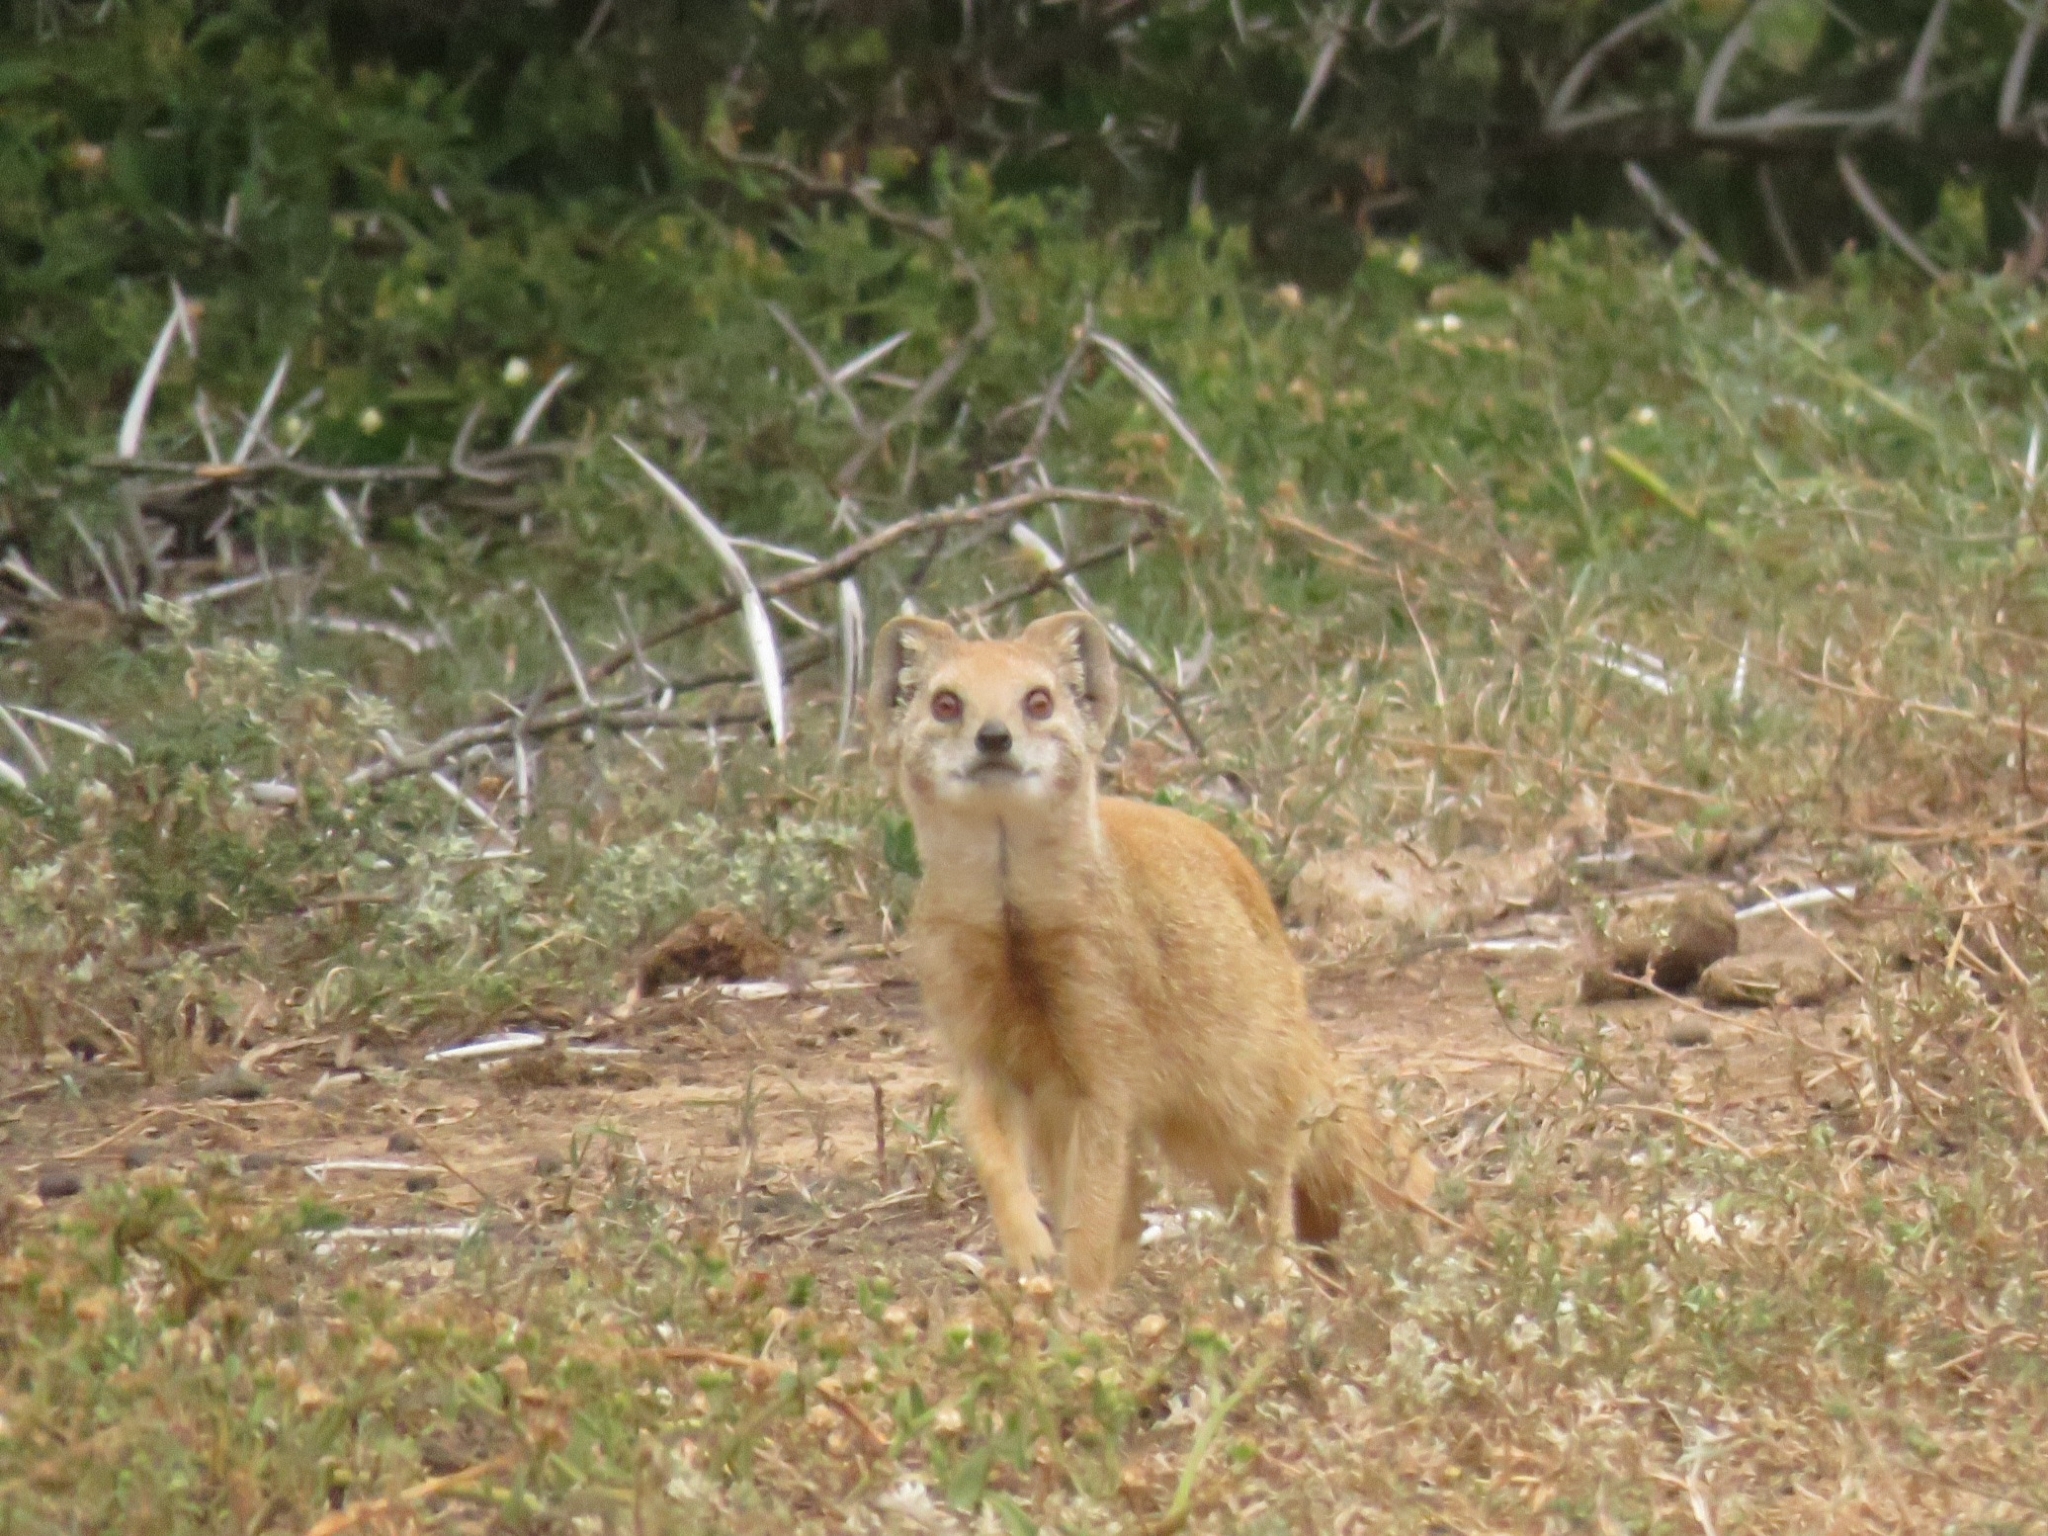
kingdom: Animalia
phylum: Chordata
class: Mammalia
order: Carnivora
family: Herpestidae
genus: Cynictis
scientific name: Cynictis penicillata
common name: Yellow mongoose
